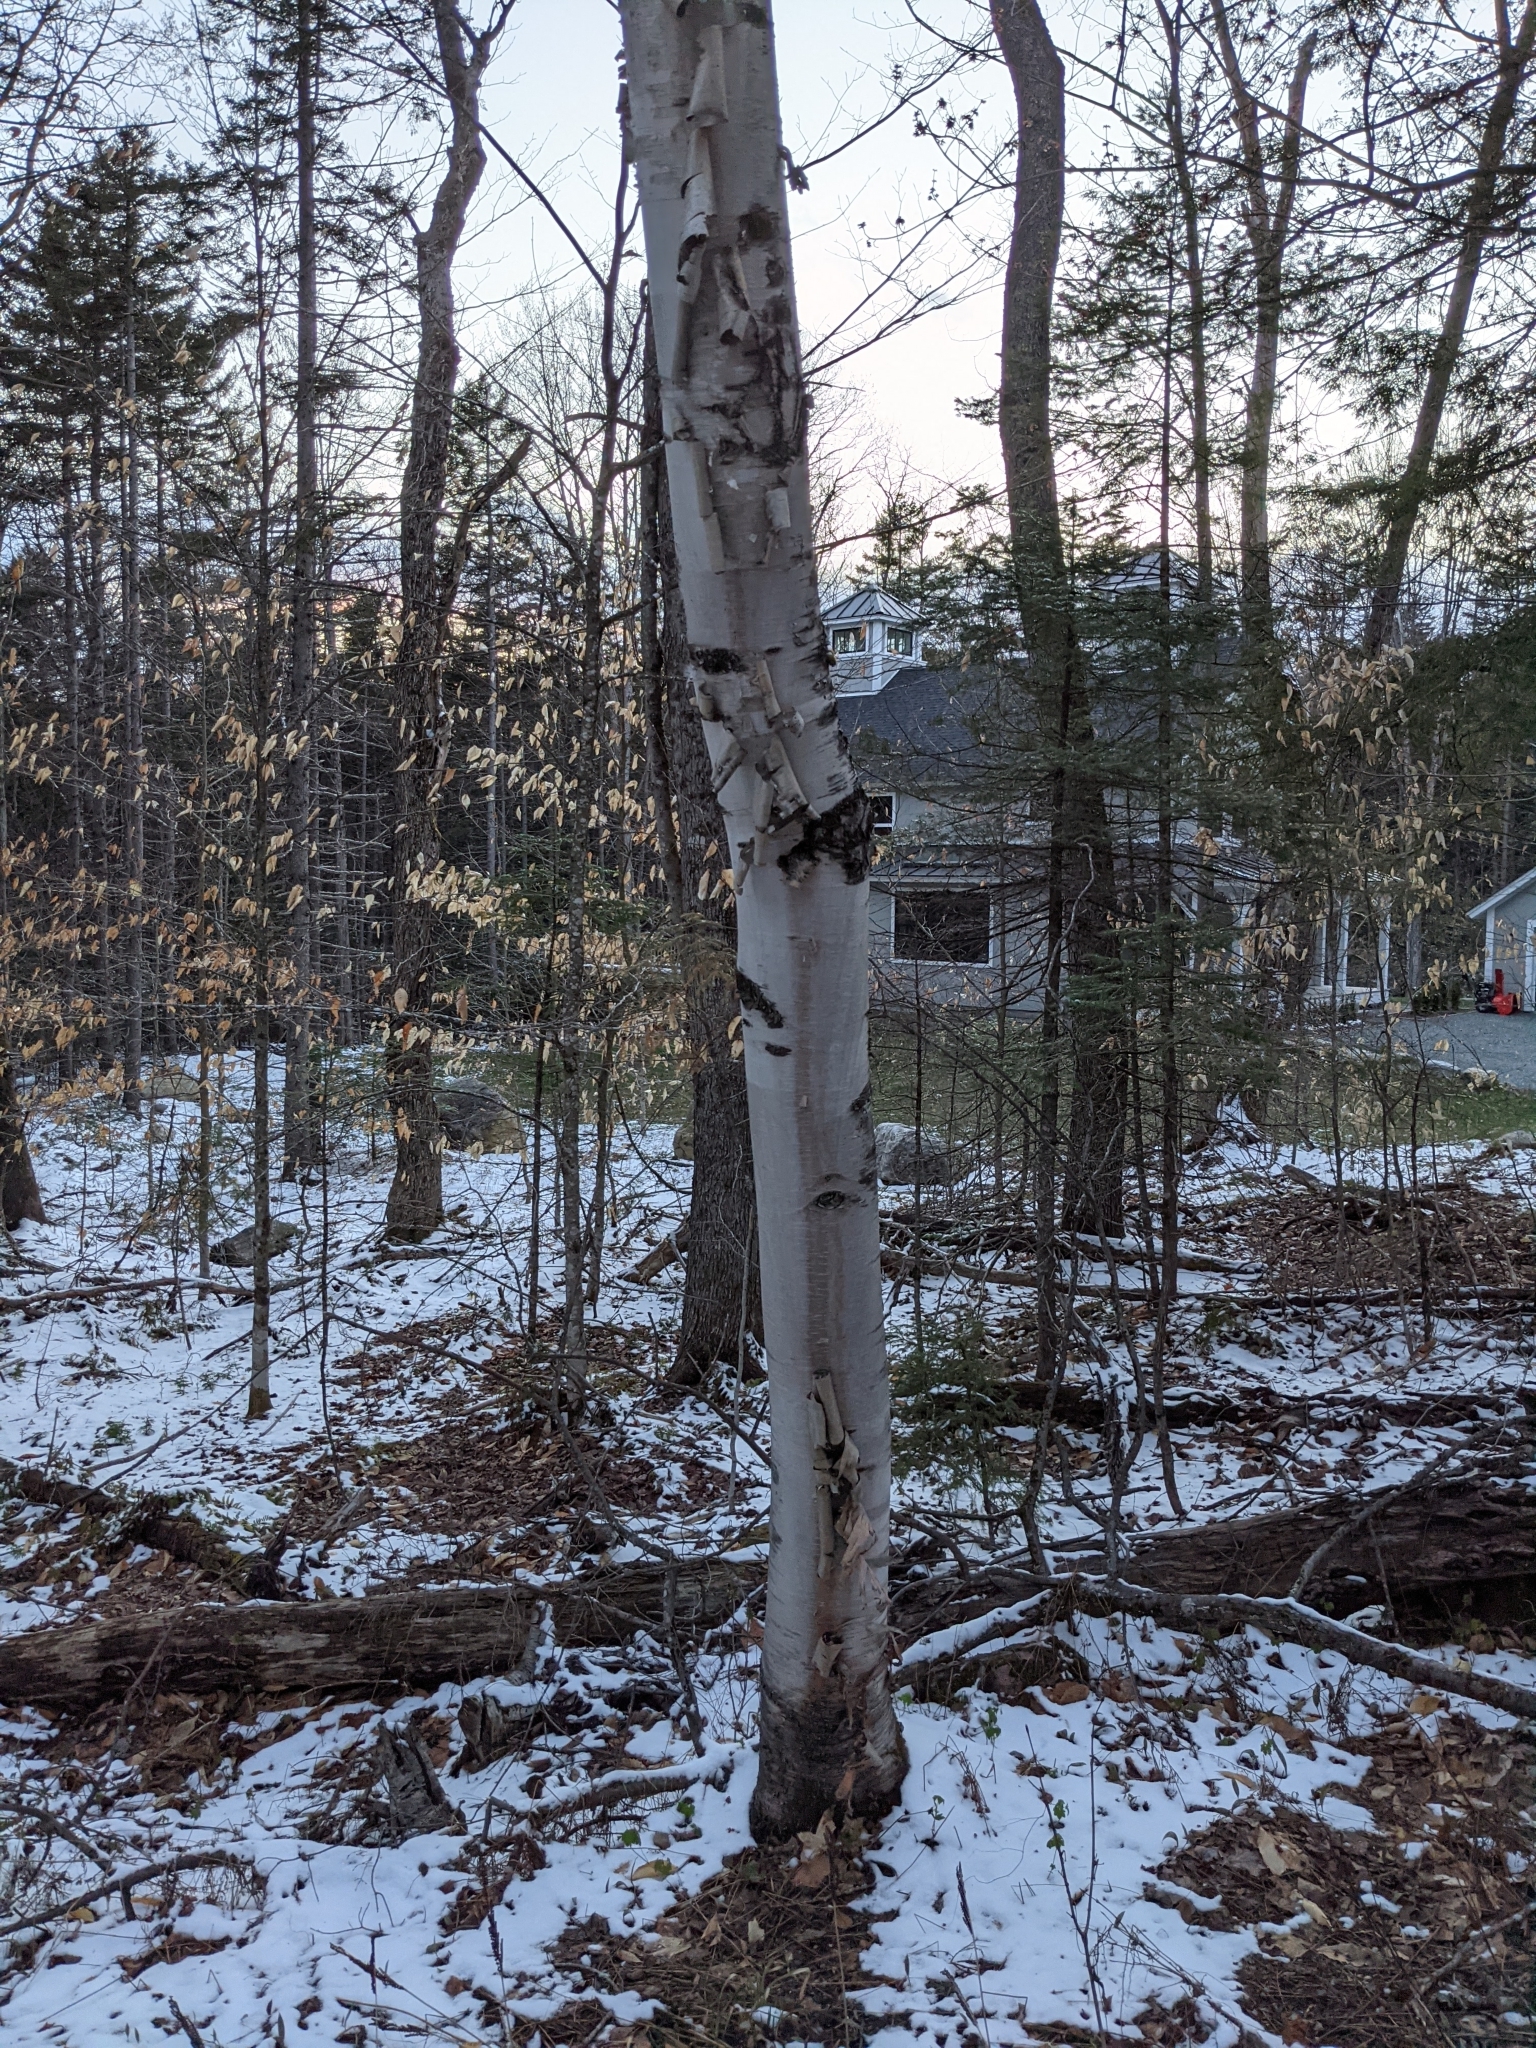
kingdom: Plantae
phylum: Tracheophyta
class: Magnoliopsida
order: Fagales
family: Betulaceae
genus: Betula
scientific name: Betula papyrifera
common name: Paper birch
